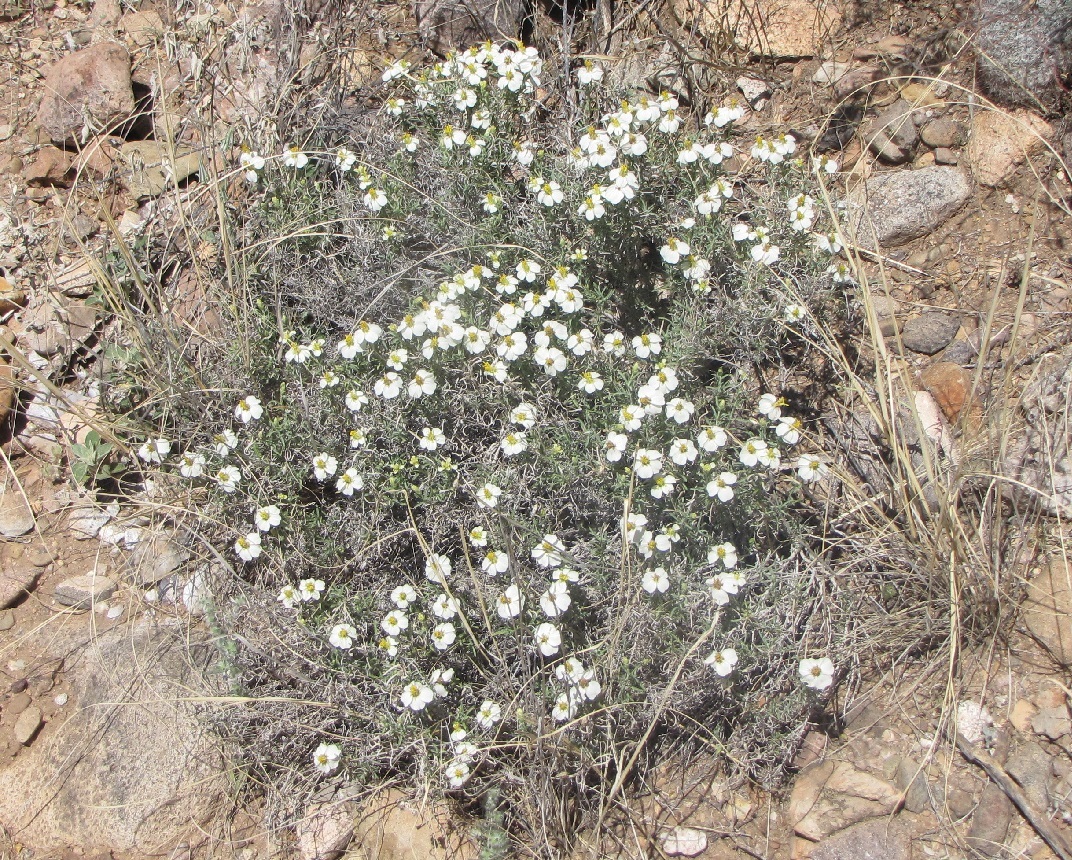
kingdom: Plantae
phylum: Tracheophyta
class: Magnoliopsida
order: Asterales
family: Asteraceae
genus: Zinnia
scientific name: Zinnia acerosa
